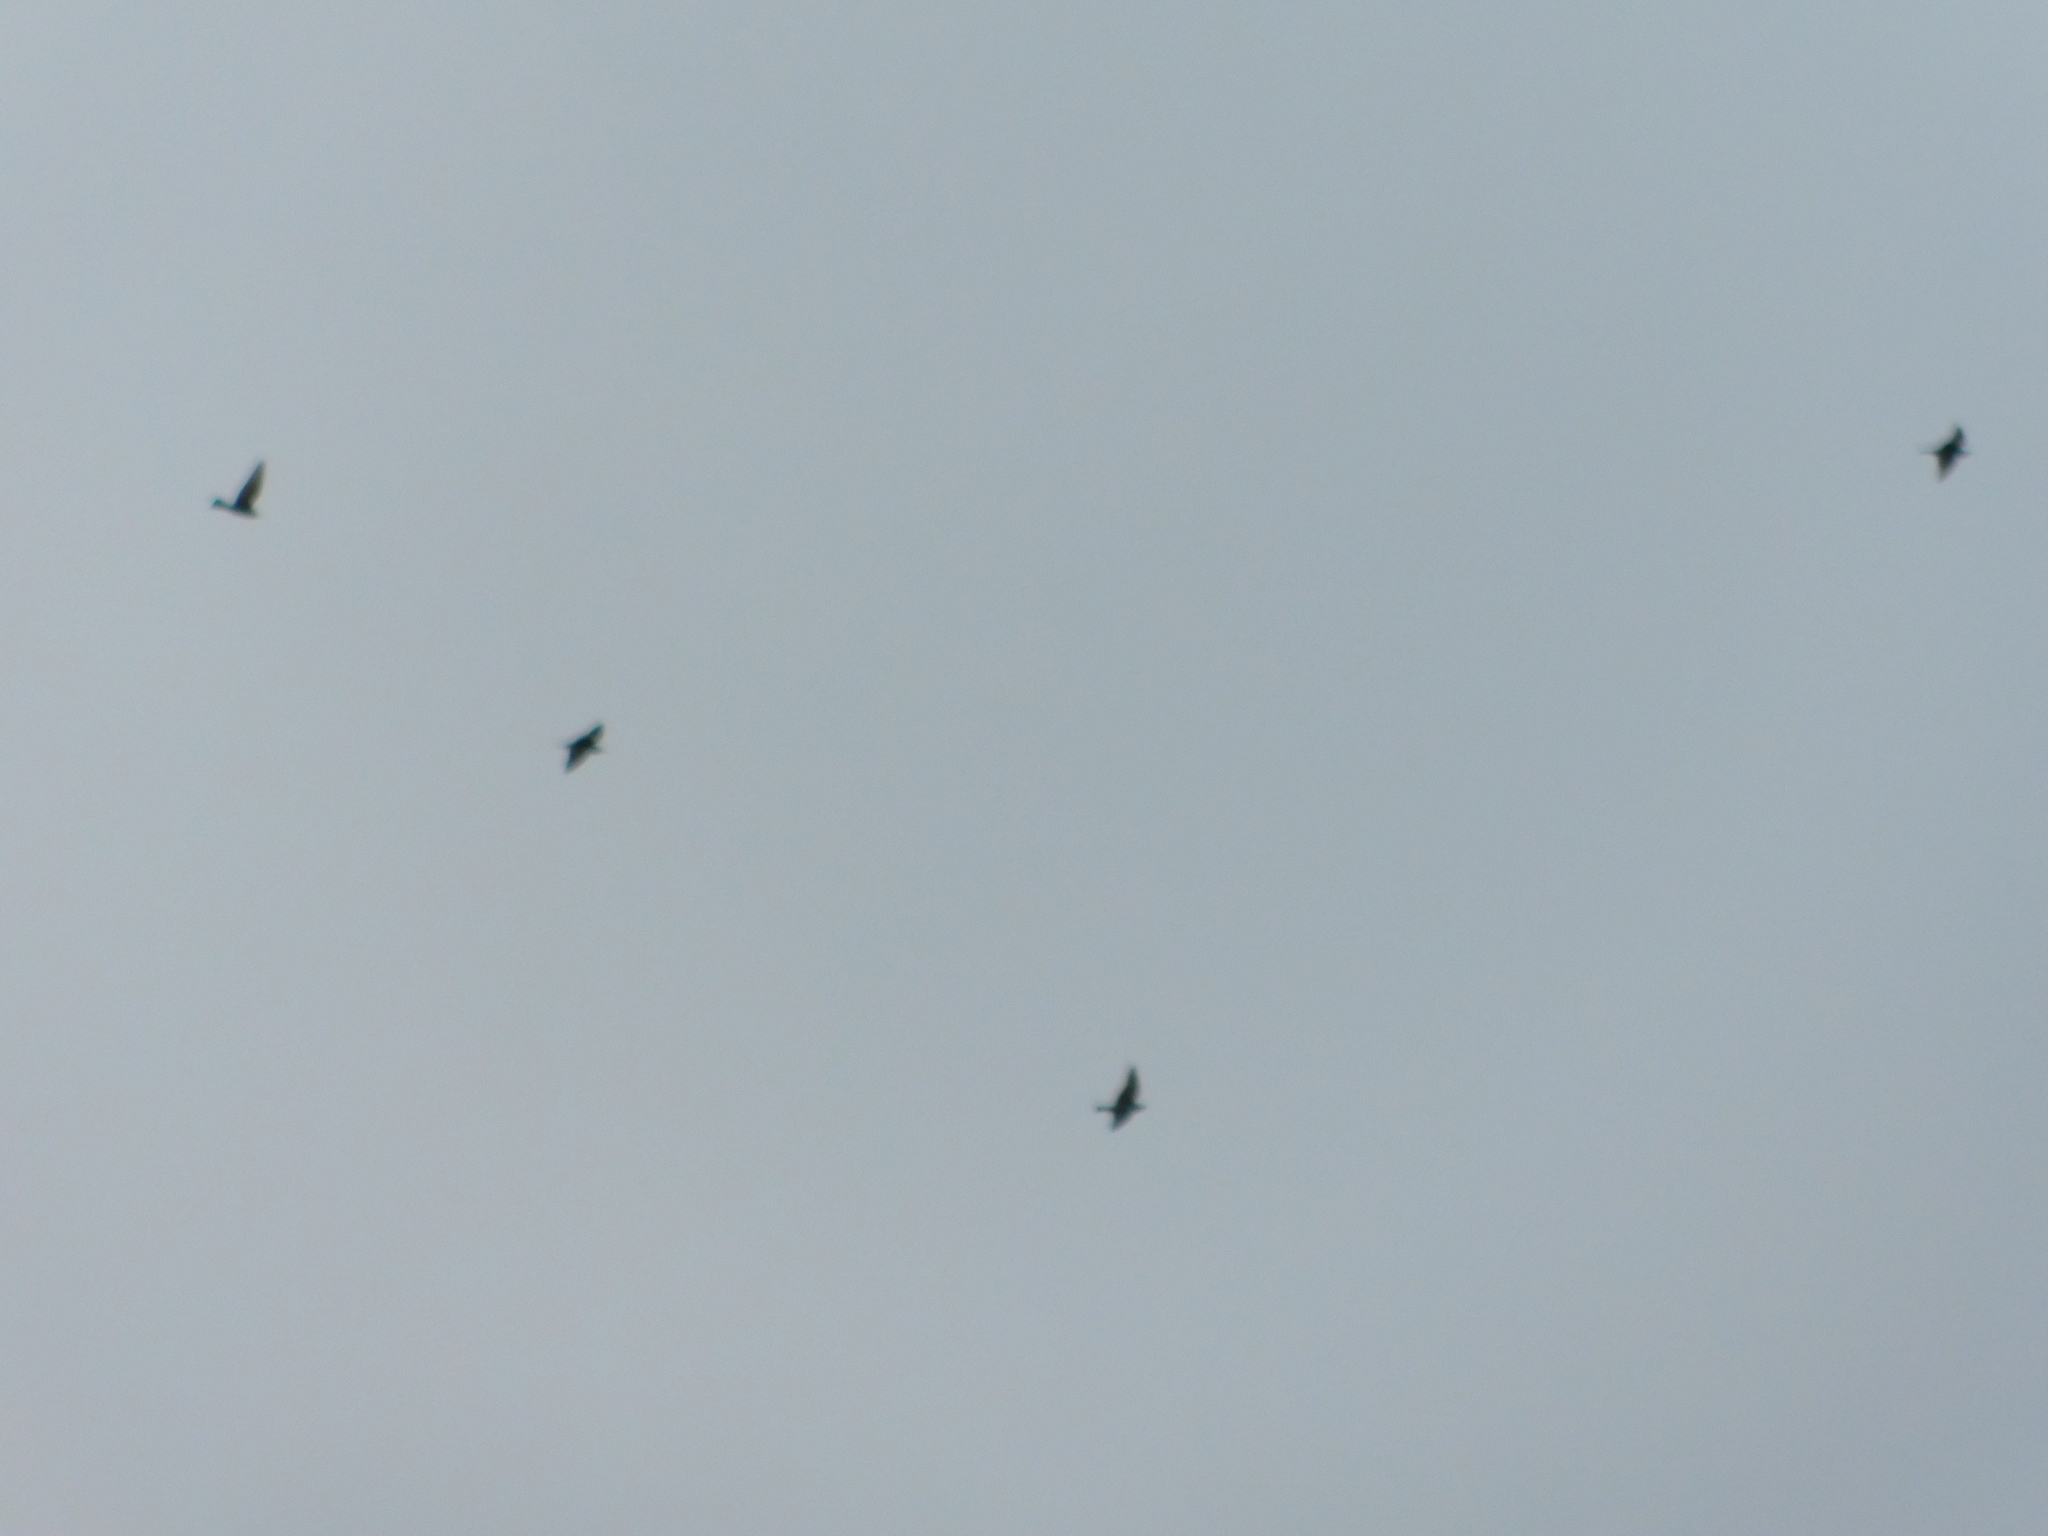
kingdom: Animalia
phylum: Chordata
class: Aves
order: Coraciiformes
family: Meropidae
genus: Merops
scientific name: Merops apiaster
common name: European bee-eater
